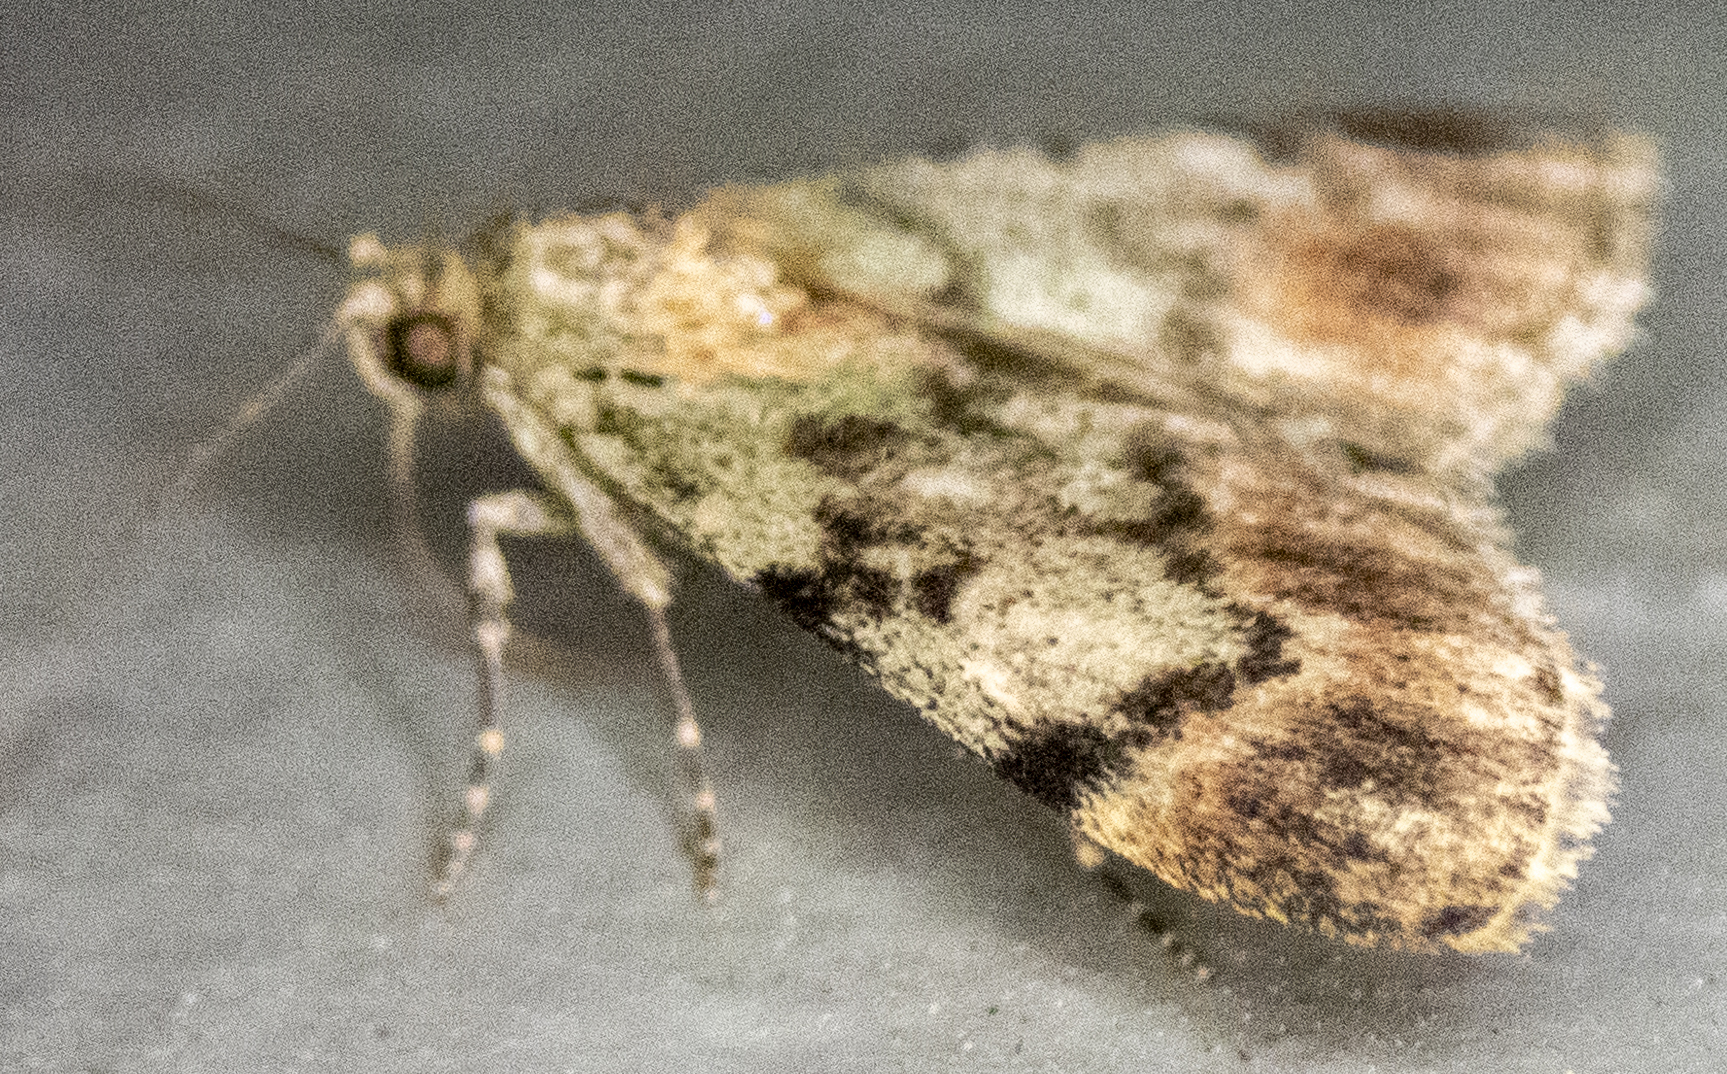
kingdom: Animalia
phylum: Arthropoda
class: Insecta
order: Lepidoptera
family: Pyralidae
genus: Epipaschia
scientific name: Epipaschia superatalis
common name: Dimorphic macalla moth
